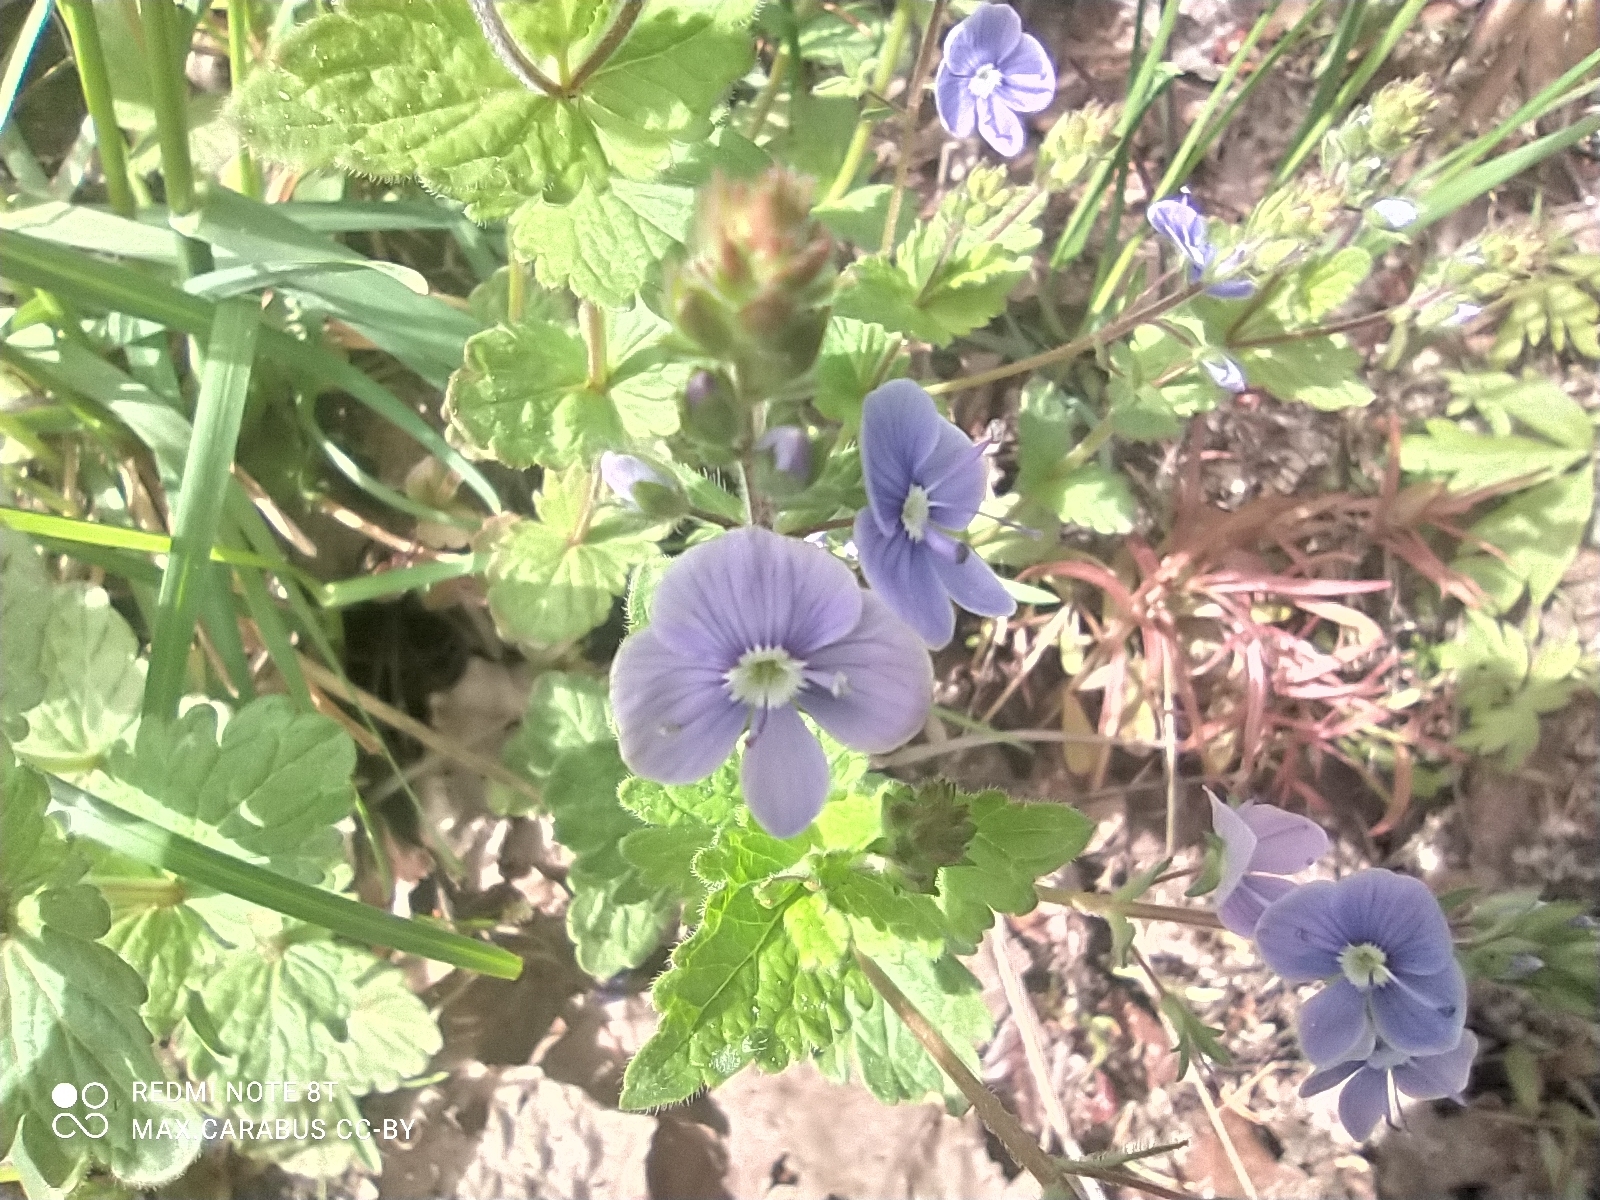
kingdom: Plantae
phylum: Tracheophyta
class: Magnoliopsida
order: Lamiales
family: Plantaginaceae
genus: Veronica
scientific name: Veronica chamaedrys
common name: Germander speedwell
